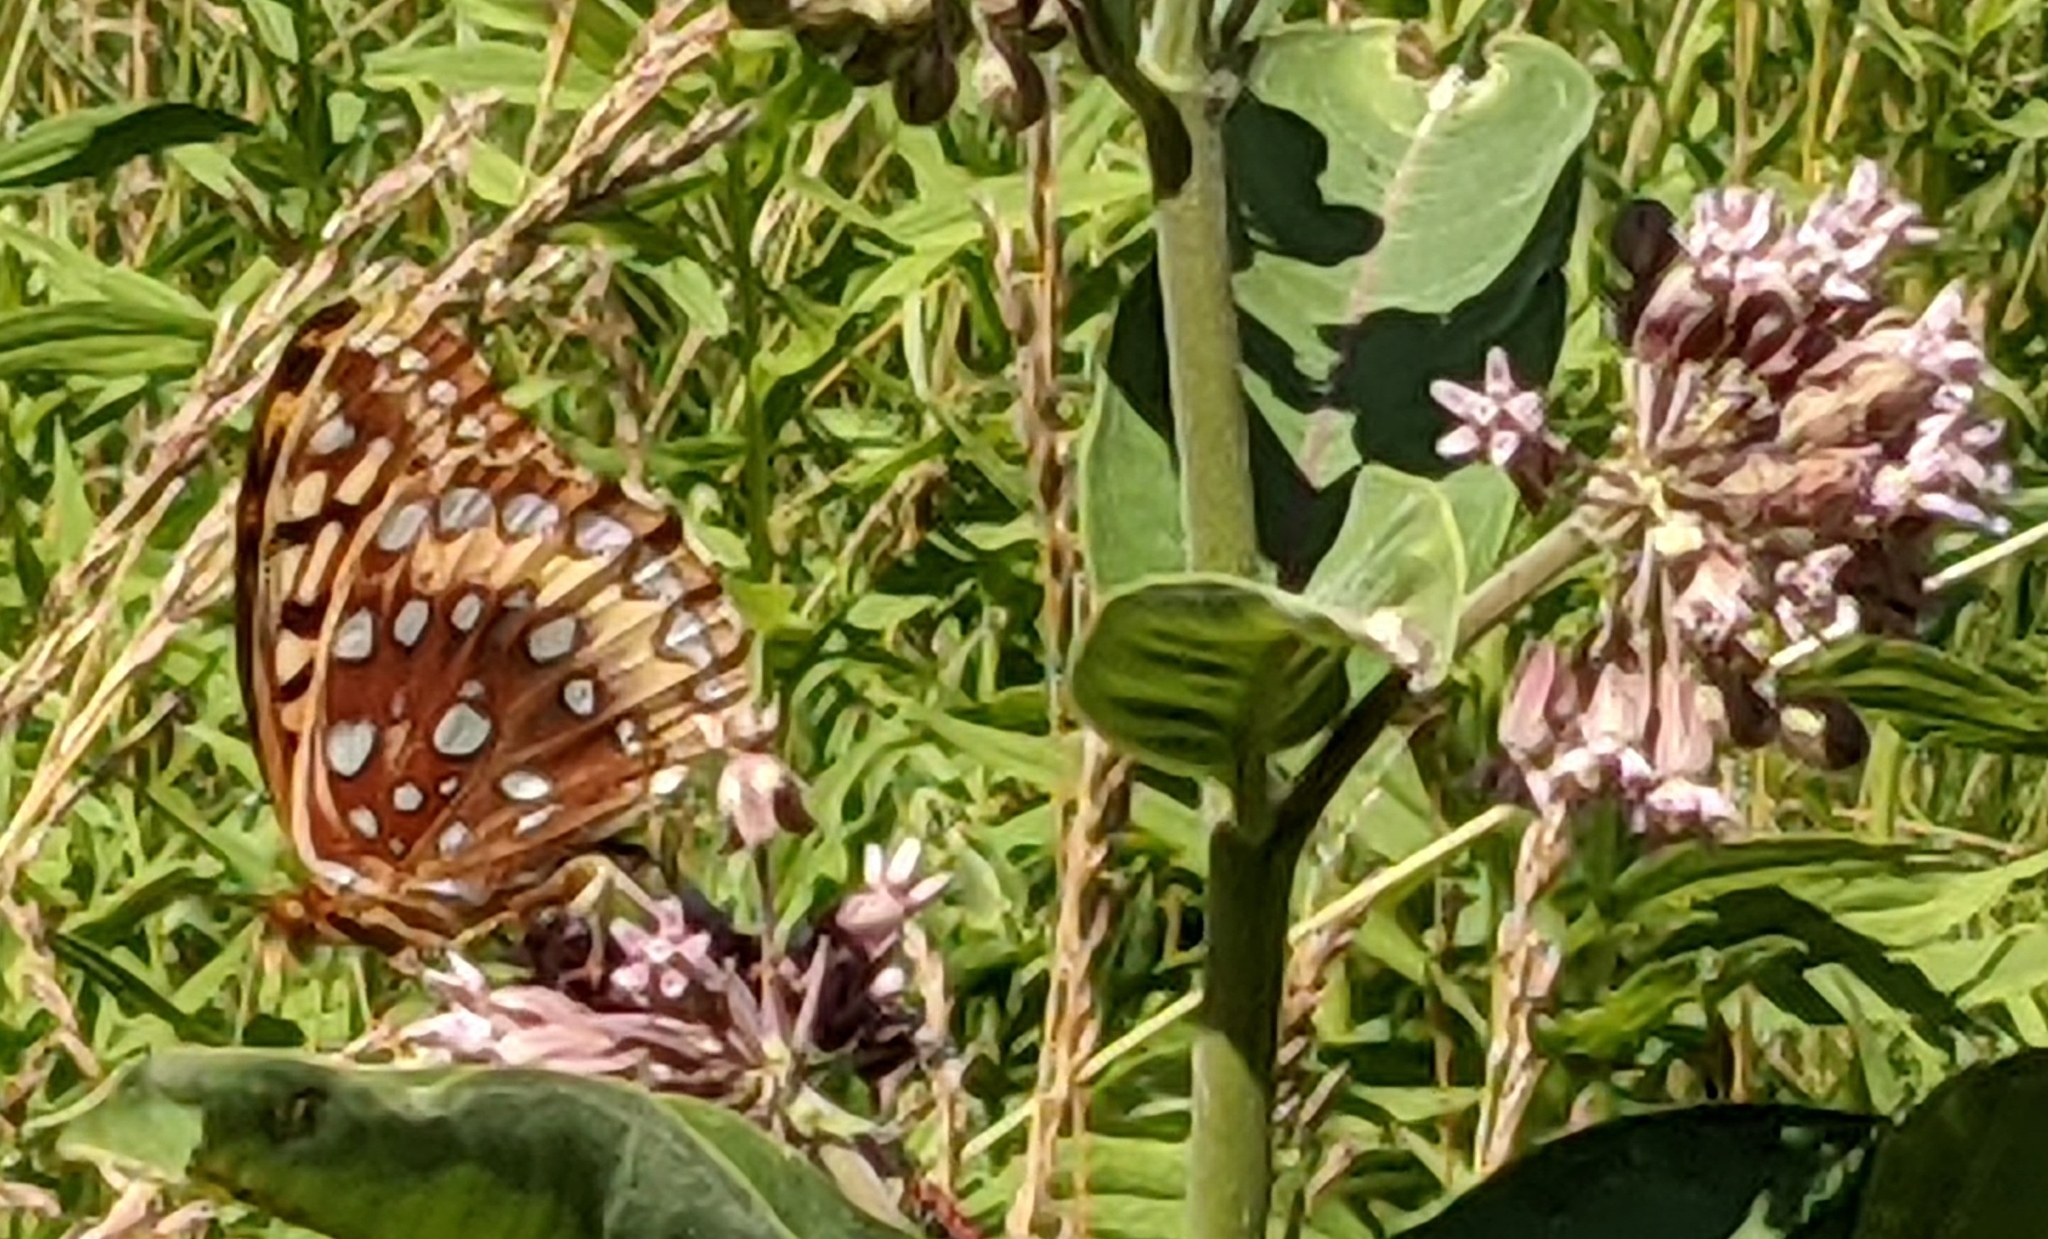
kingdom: Animalia
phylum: Arthropoda
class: Insecta
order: Lepidoptera
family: Nymphalidae
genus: Speyeria
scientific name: Speyeria cybele
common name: Great spangled fritillary
